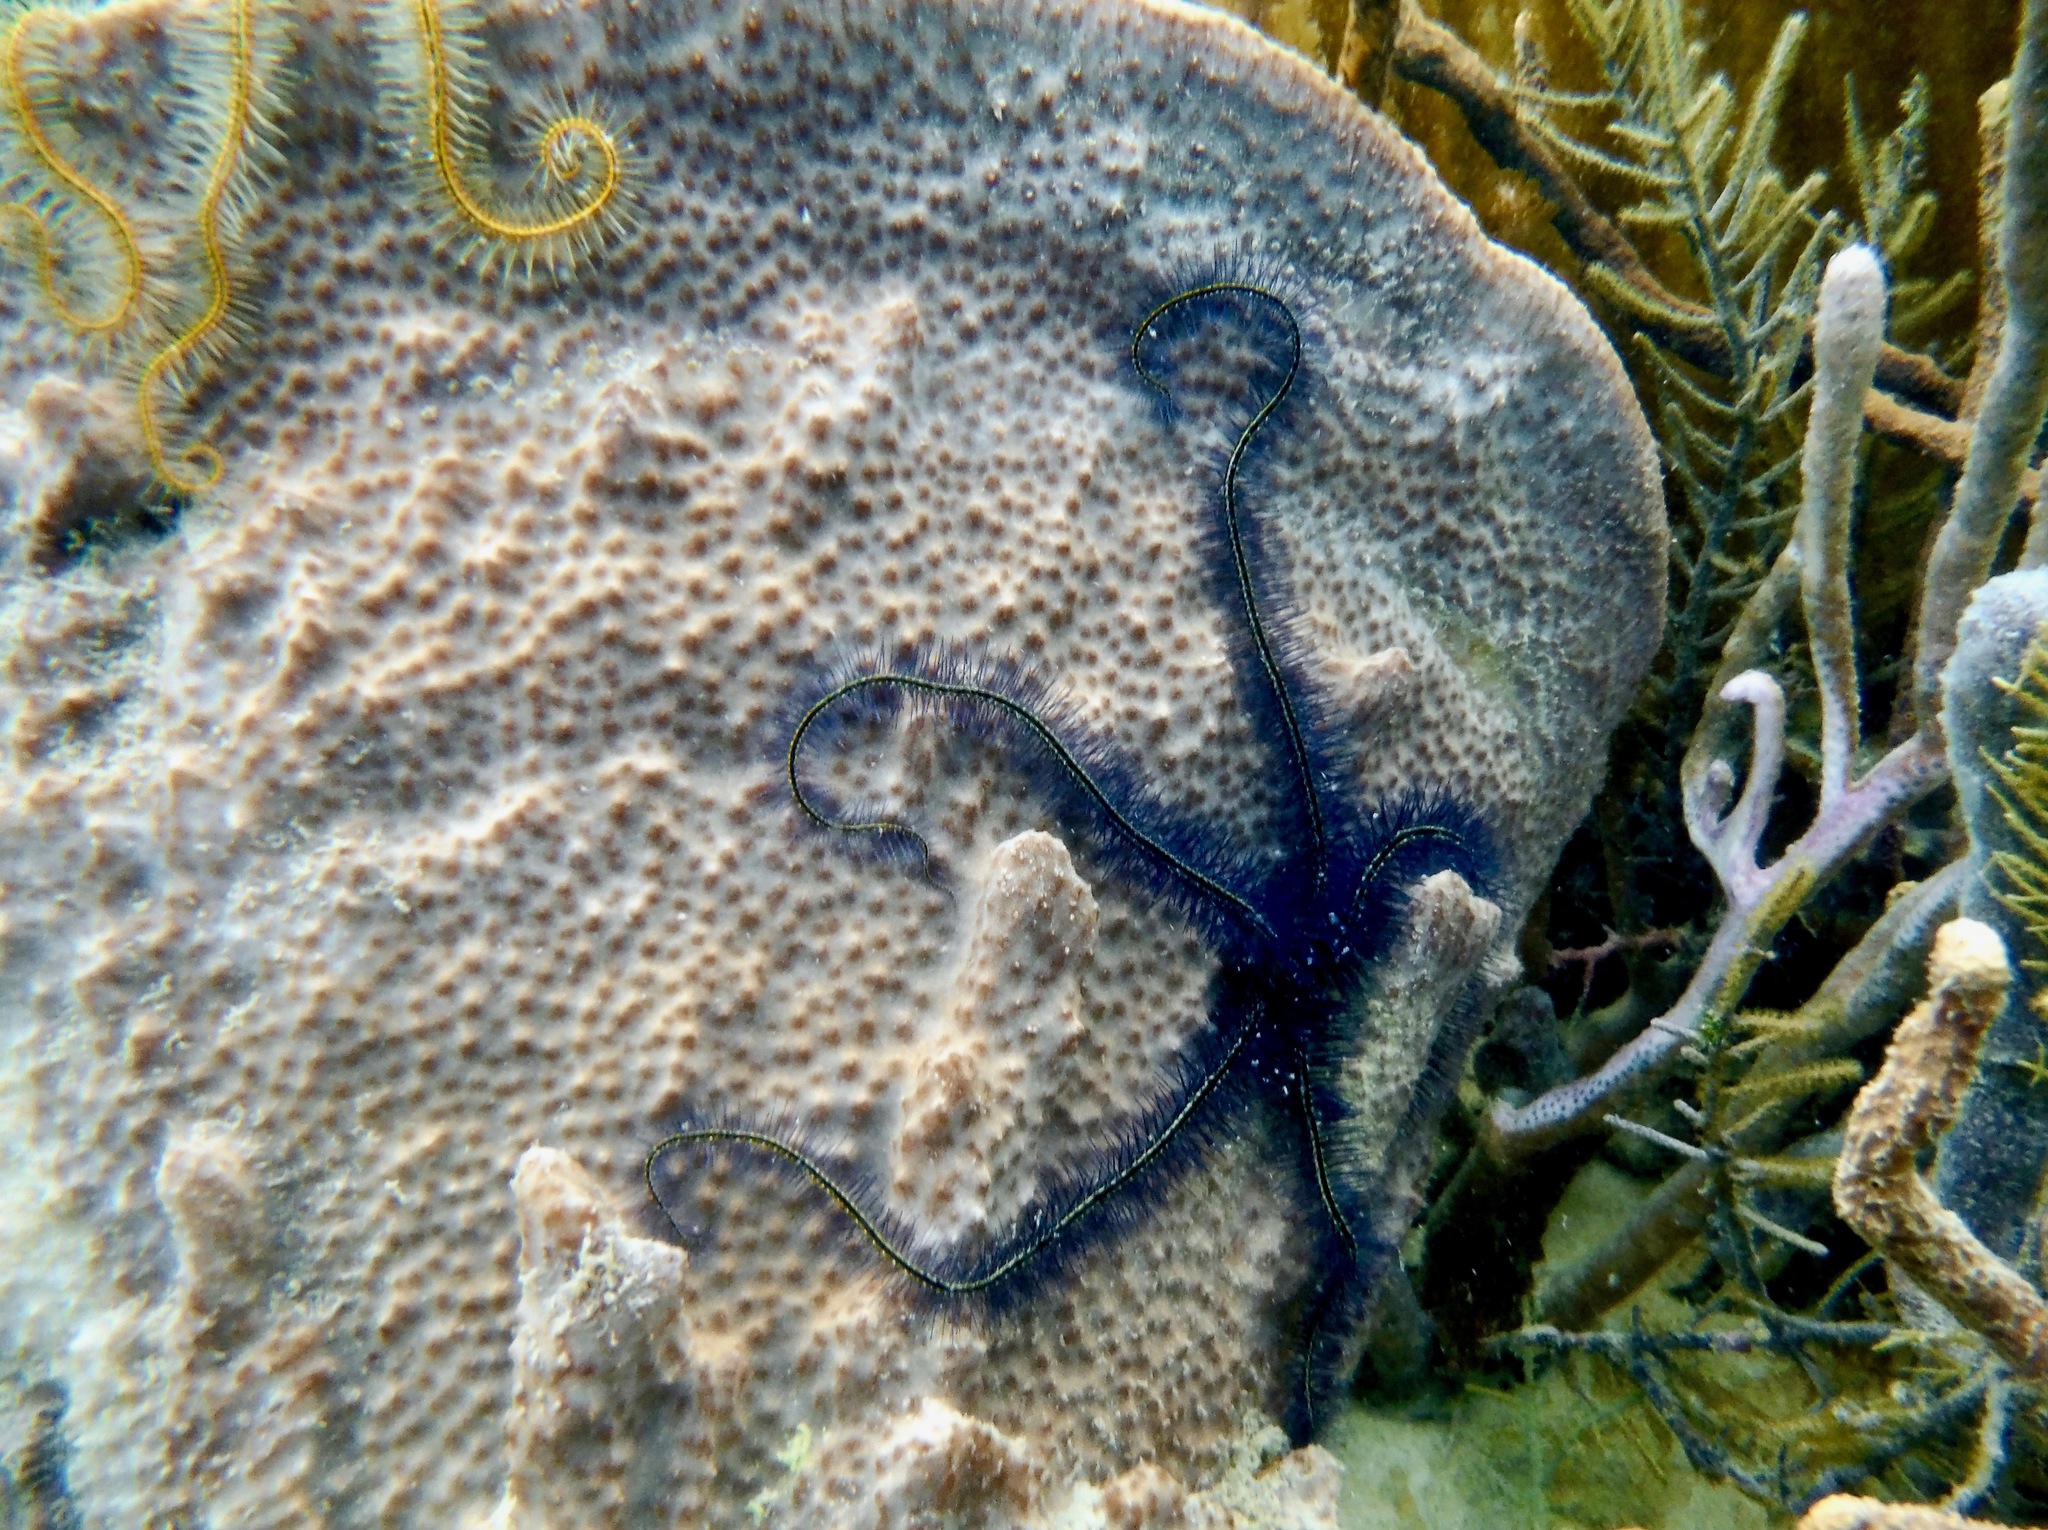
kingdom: Animalia
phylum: Echinodermata
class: Ophiuroidea
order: Amphilepidida
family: Ophiotrichidae
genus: Ophiothrix
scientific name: Ophiothrix suensonii
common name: Sponge brittle star
